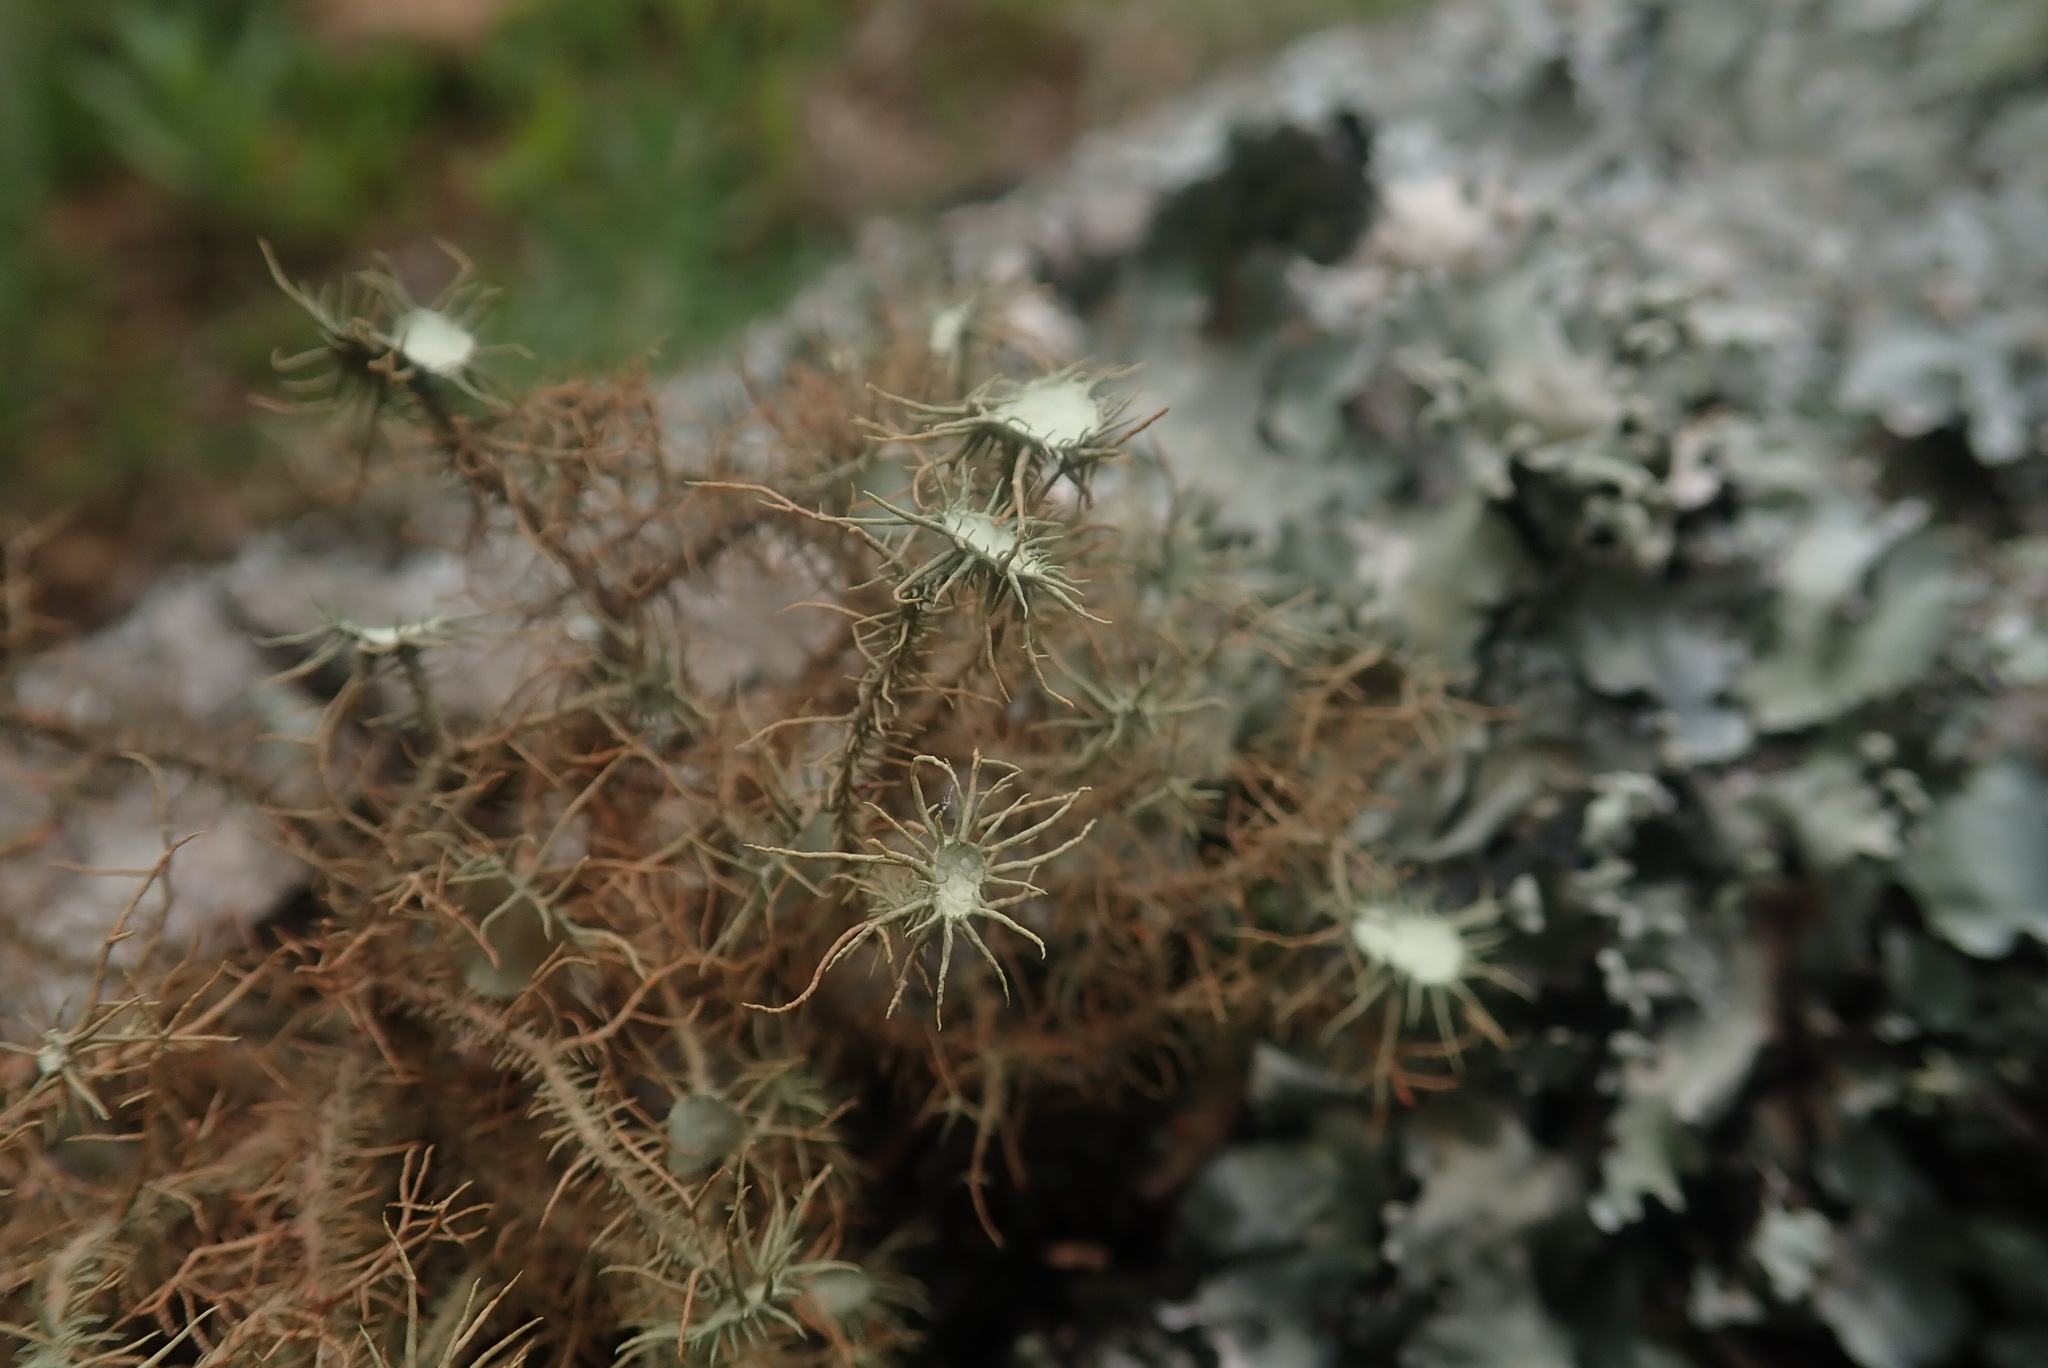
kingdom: Fungi
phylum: Ascomycota
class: Lecanoromycetes
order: Lecanorales
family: Parmeliaceae
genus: Usnea
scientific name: Usnea erinacea
